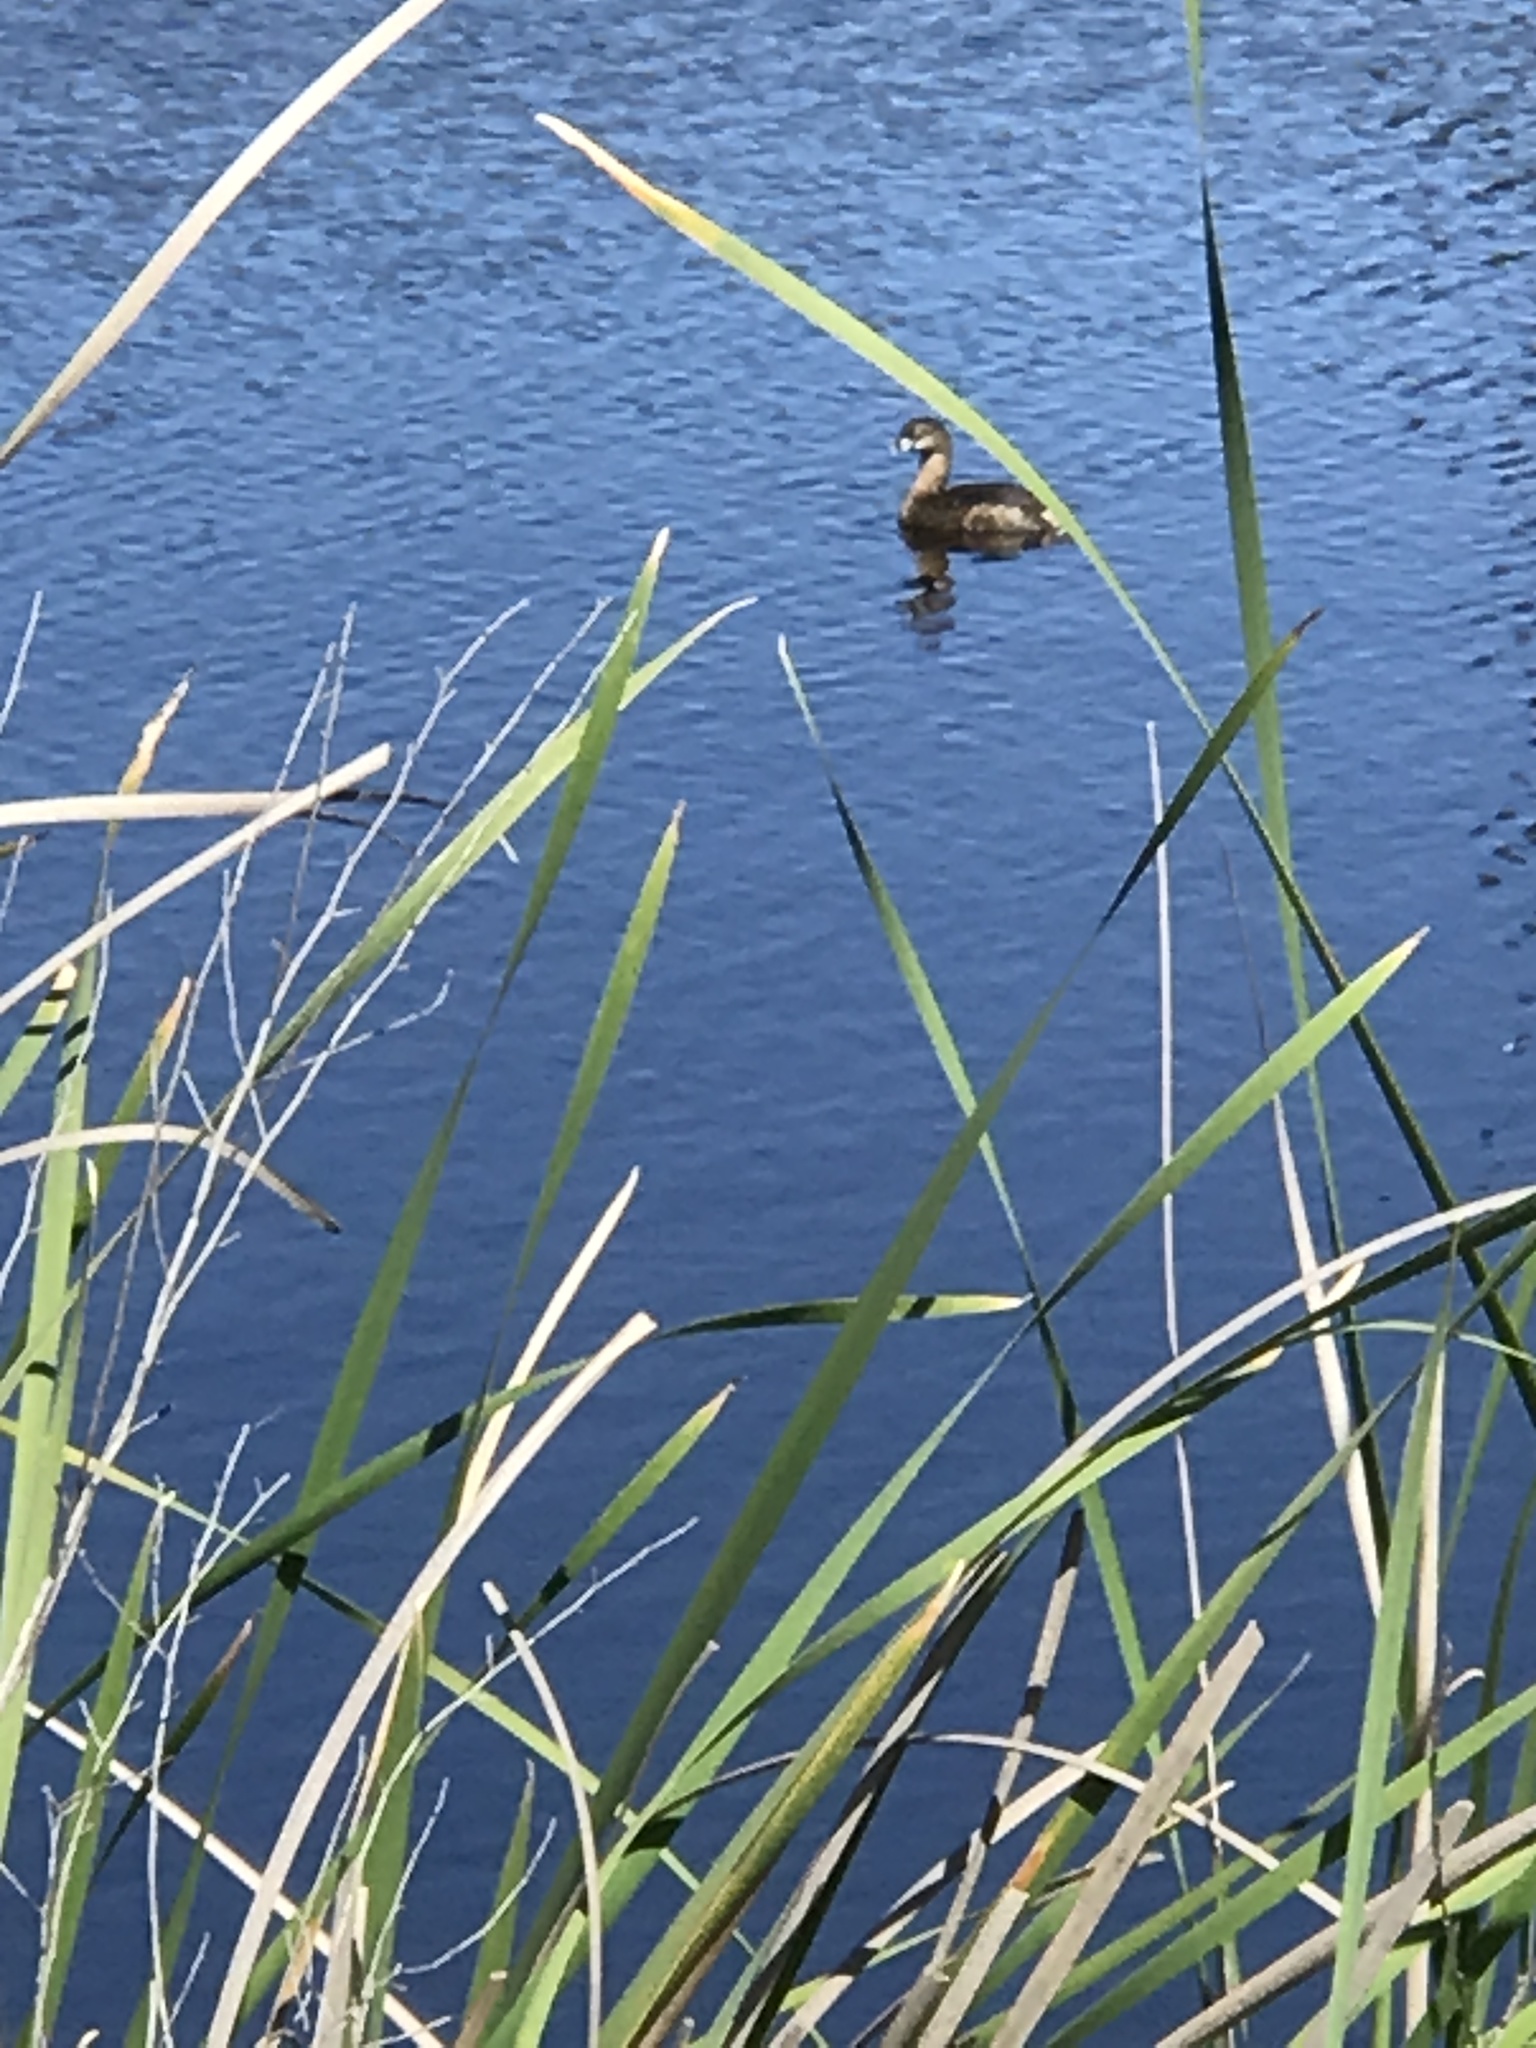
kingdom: Animalia
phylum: Chordata
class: Aves
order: Podicipediformes
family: Podicipedidae
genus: Podilymbus
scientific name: Podilymbus podiceps
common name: Pied-billed grebe
